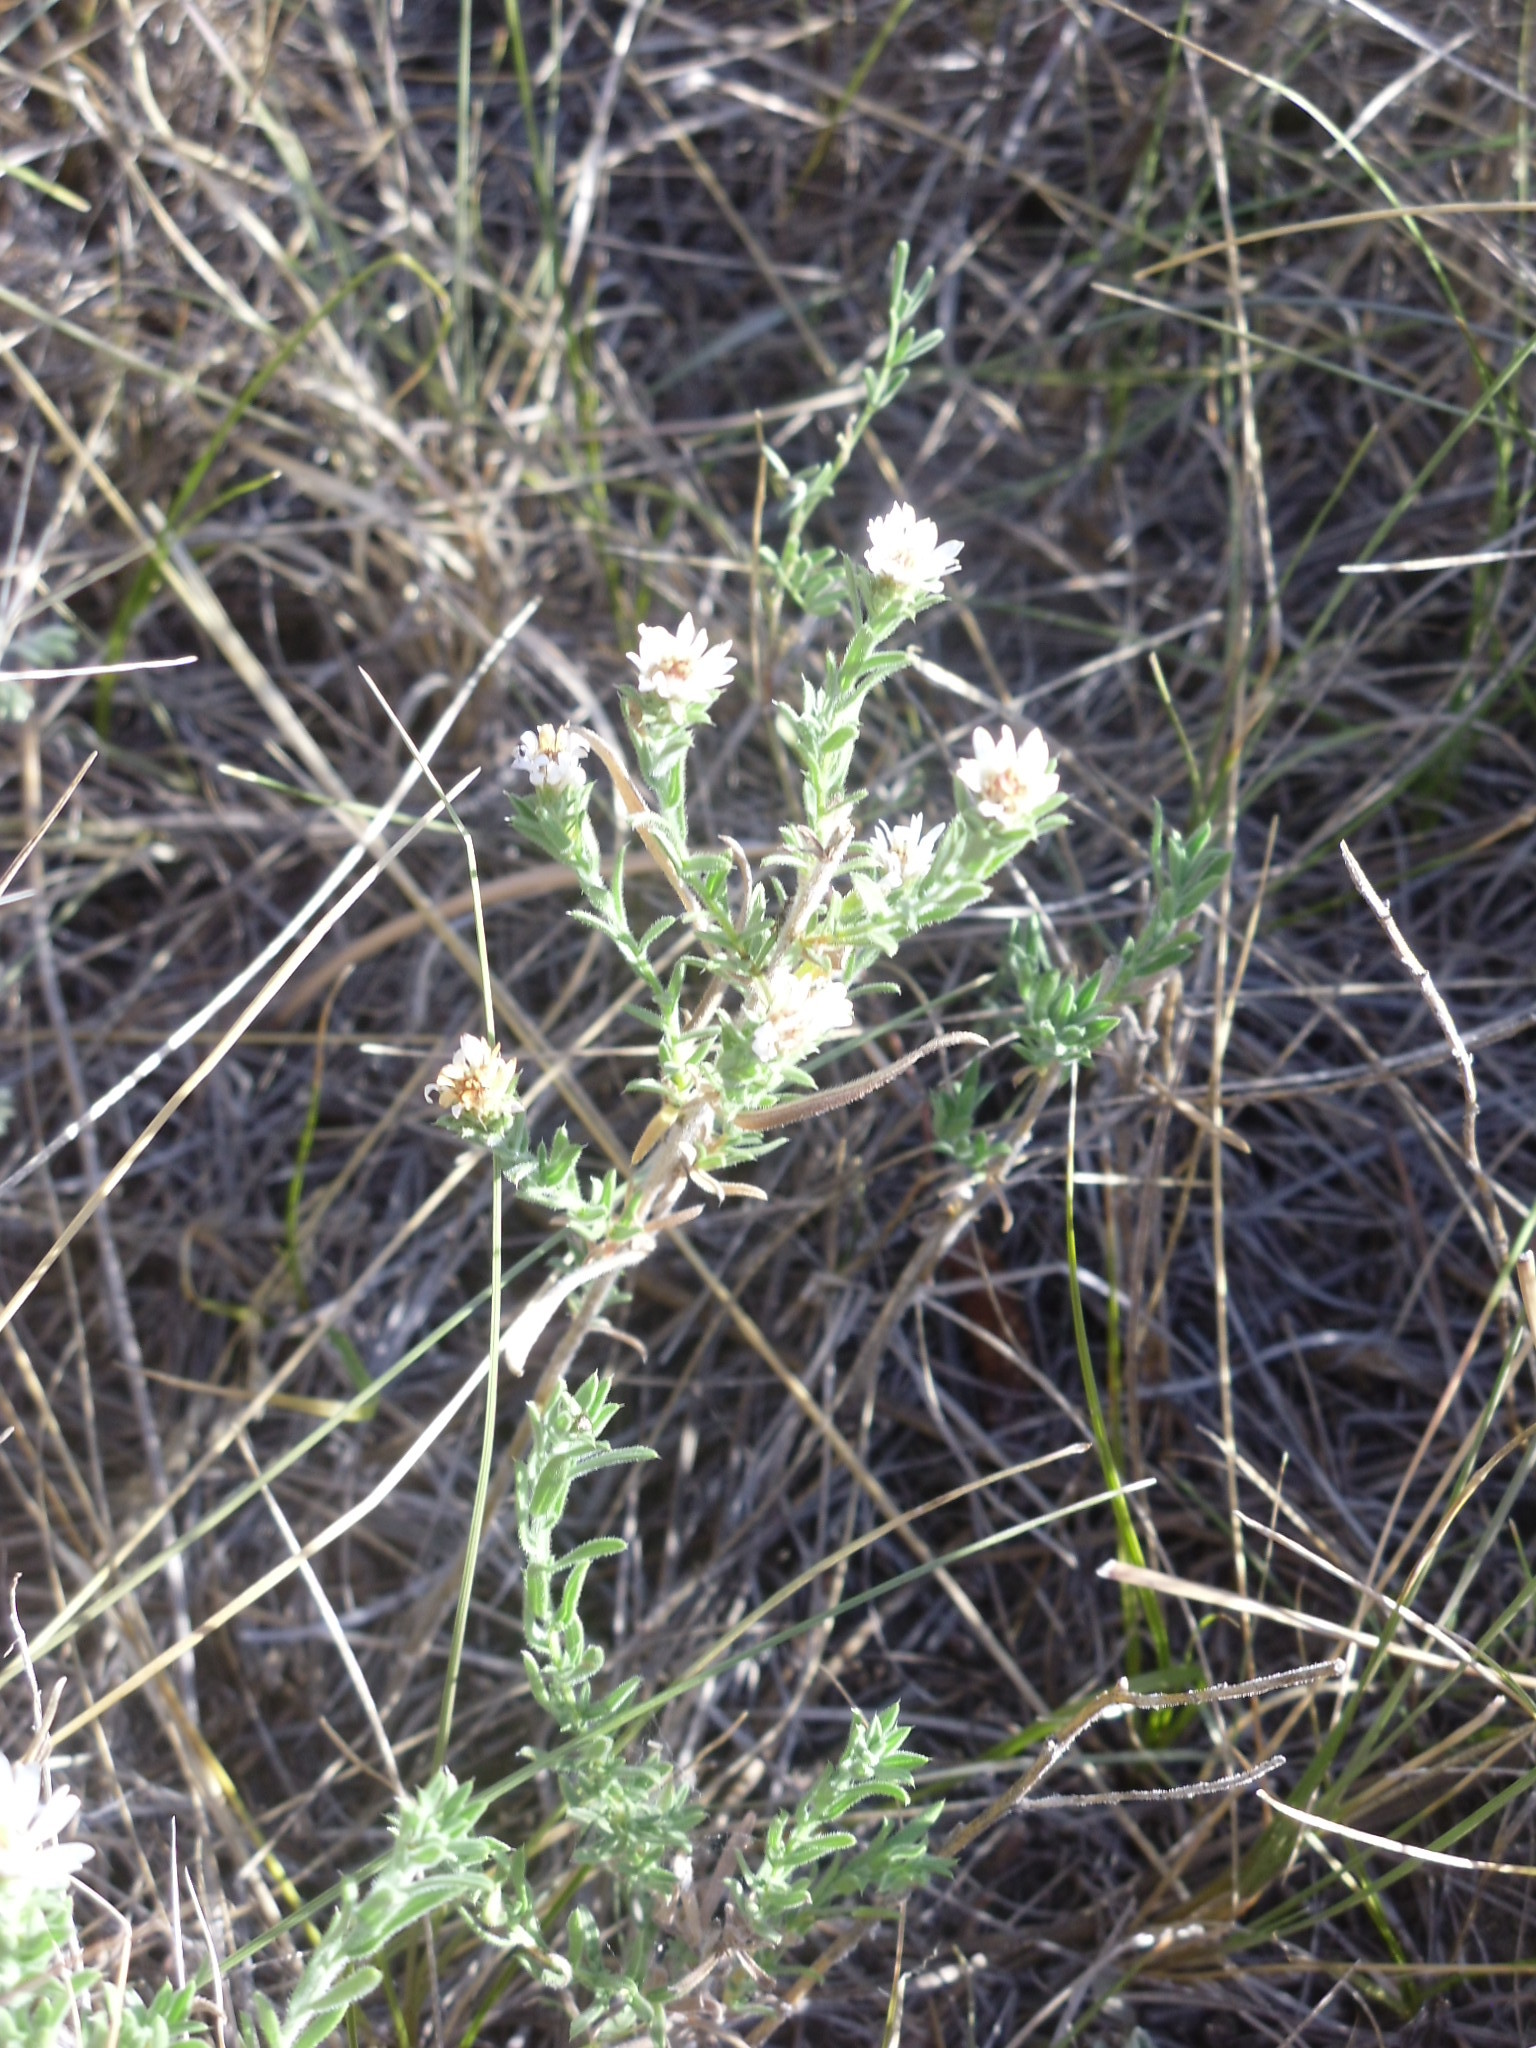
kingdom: Plantae
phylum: Tracheophyta
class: Magnoliopsida
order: Asterales
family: Asteraceae
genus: Symphyotrichum
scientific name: Symphyotrichum ericoides
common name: Heath aster
